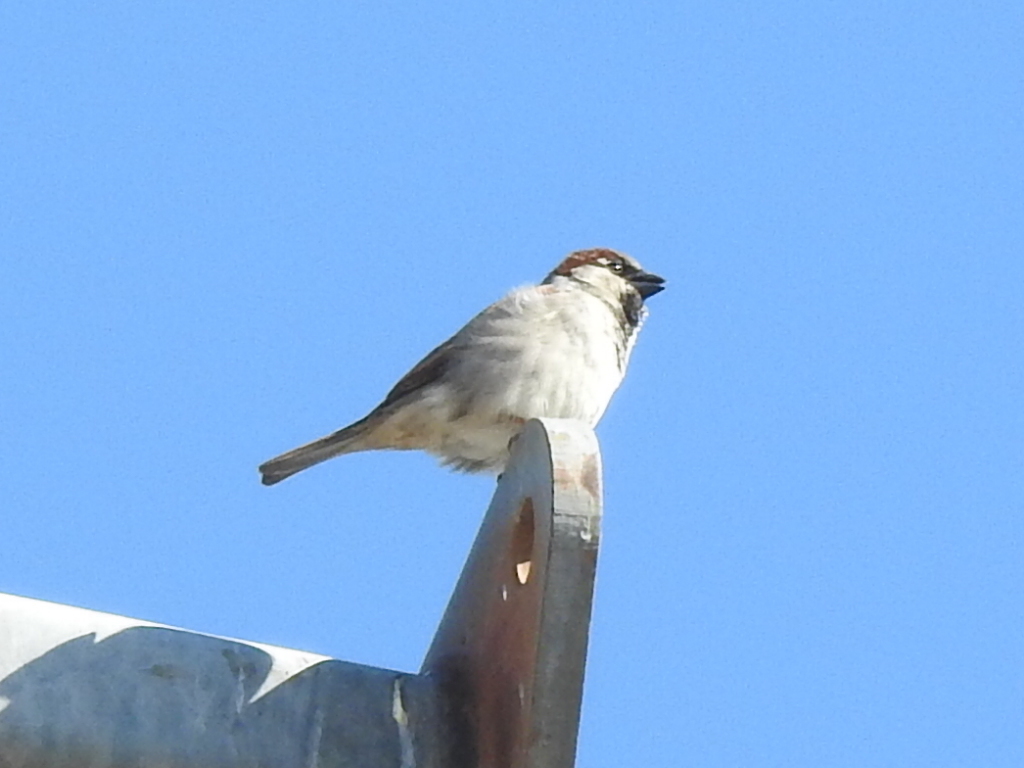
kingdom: Animalia
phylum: Chordata
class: Aves
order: Passeriformes
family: Passeridae
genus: Passer
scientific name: Passer domesticus
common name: House sparrow
